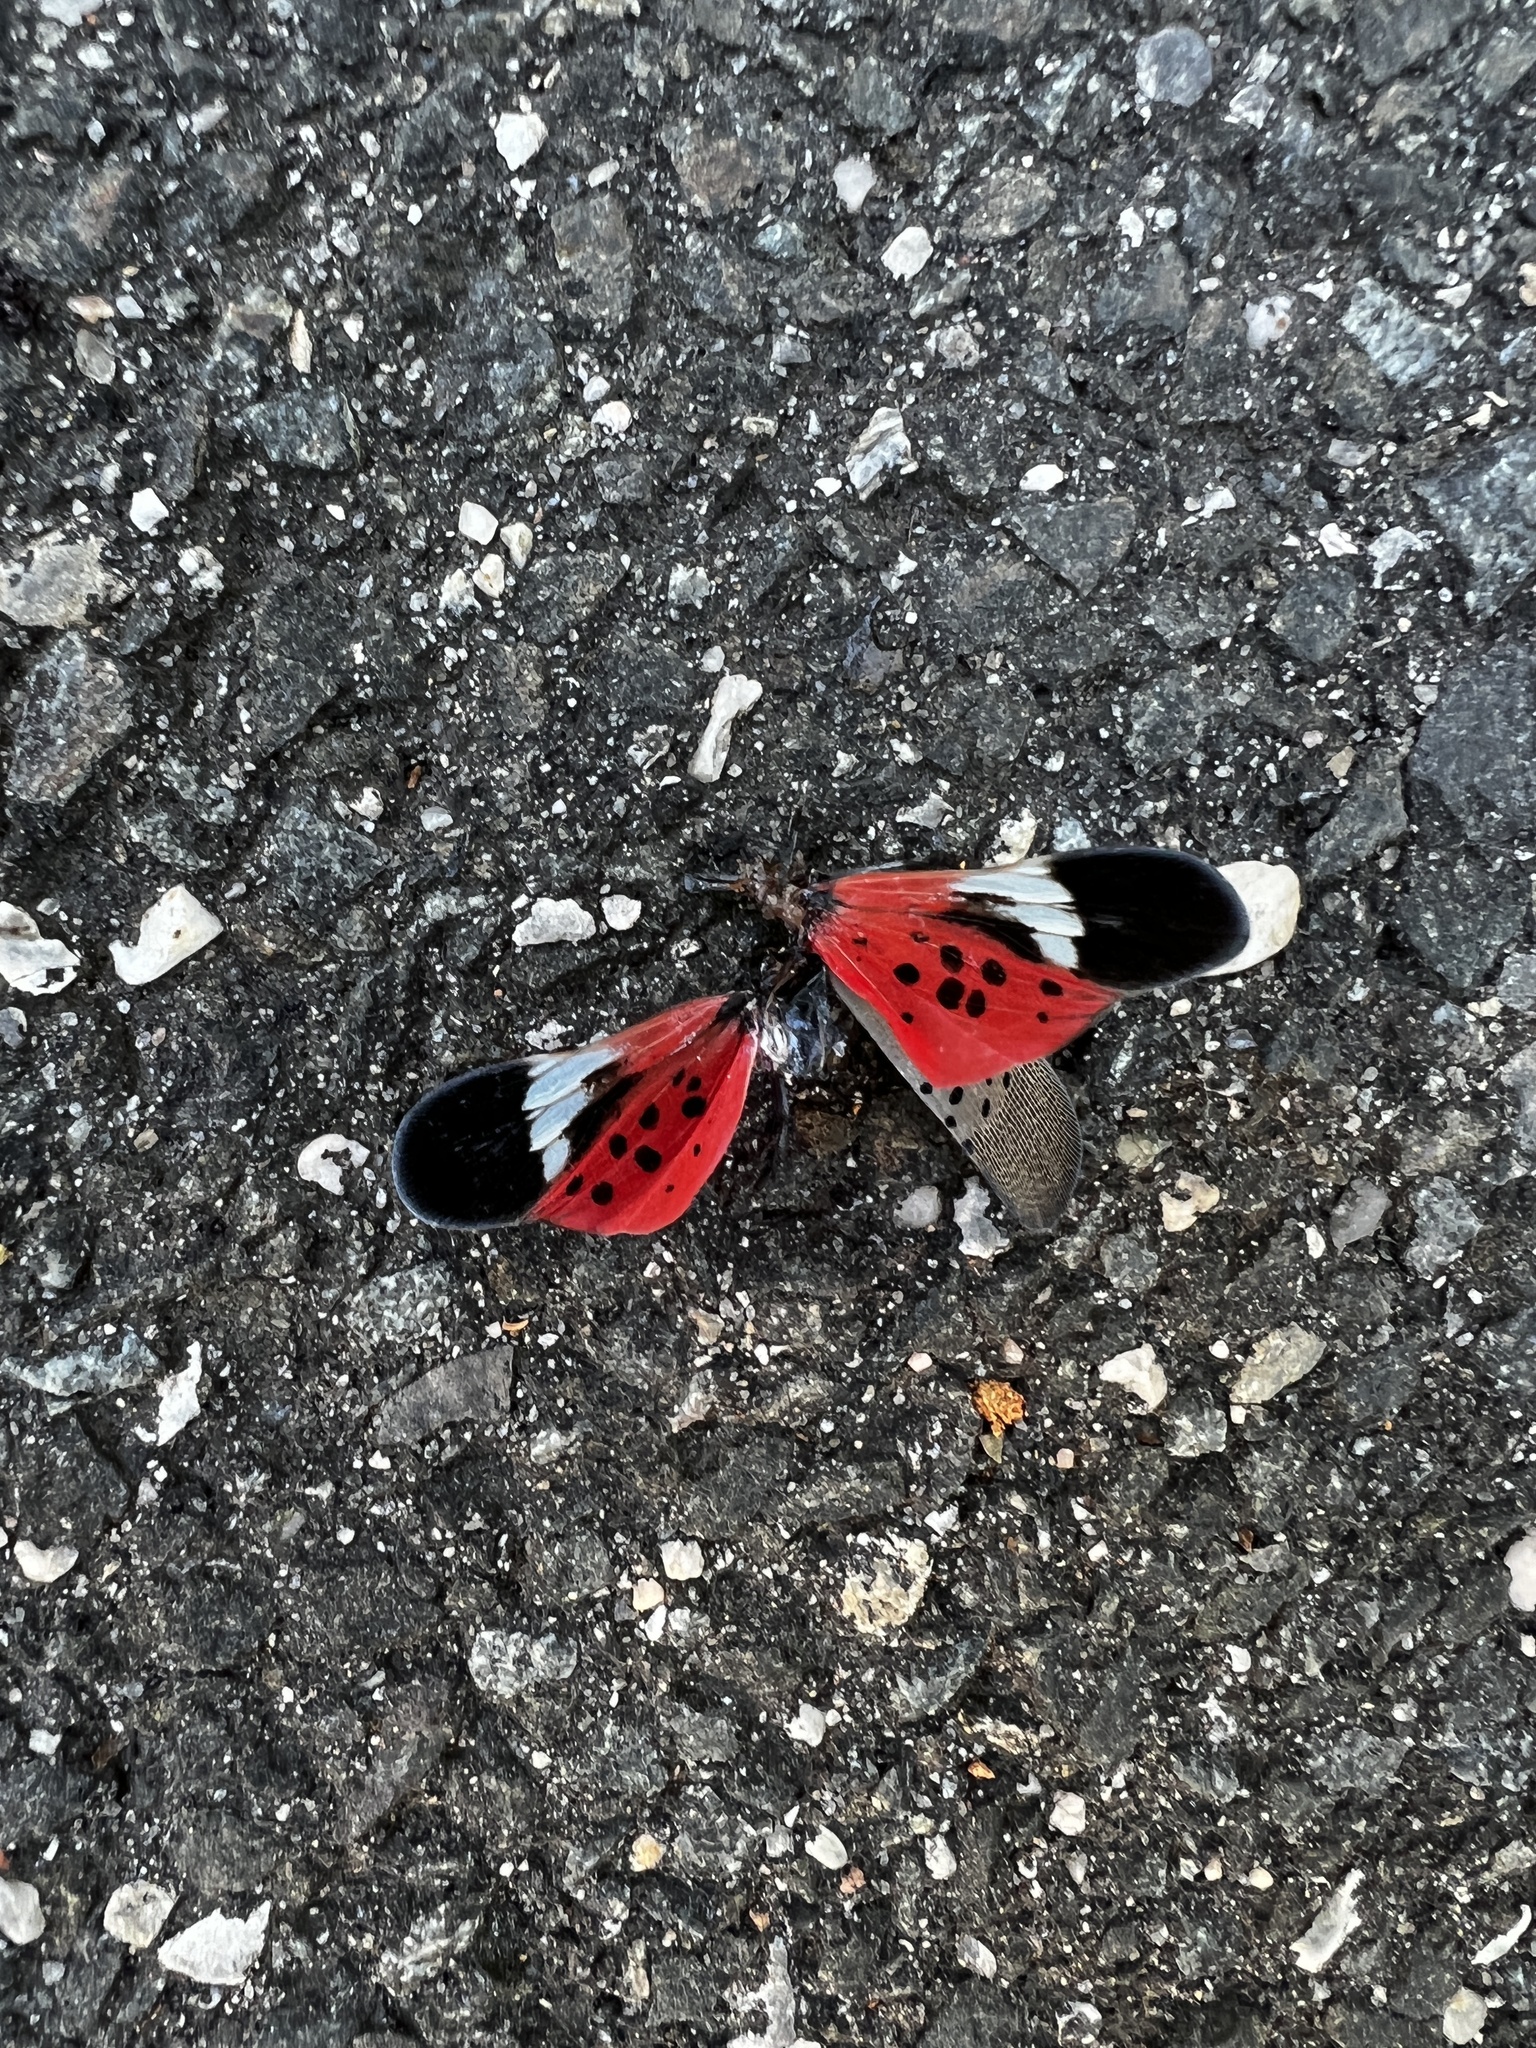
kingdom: Animalia
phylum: Arthropoda
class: Insecta
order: Hemiptera
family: Fulgoridae
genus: Lycorma
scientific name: Lycorma delicatula
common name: Spotted lanternfly
